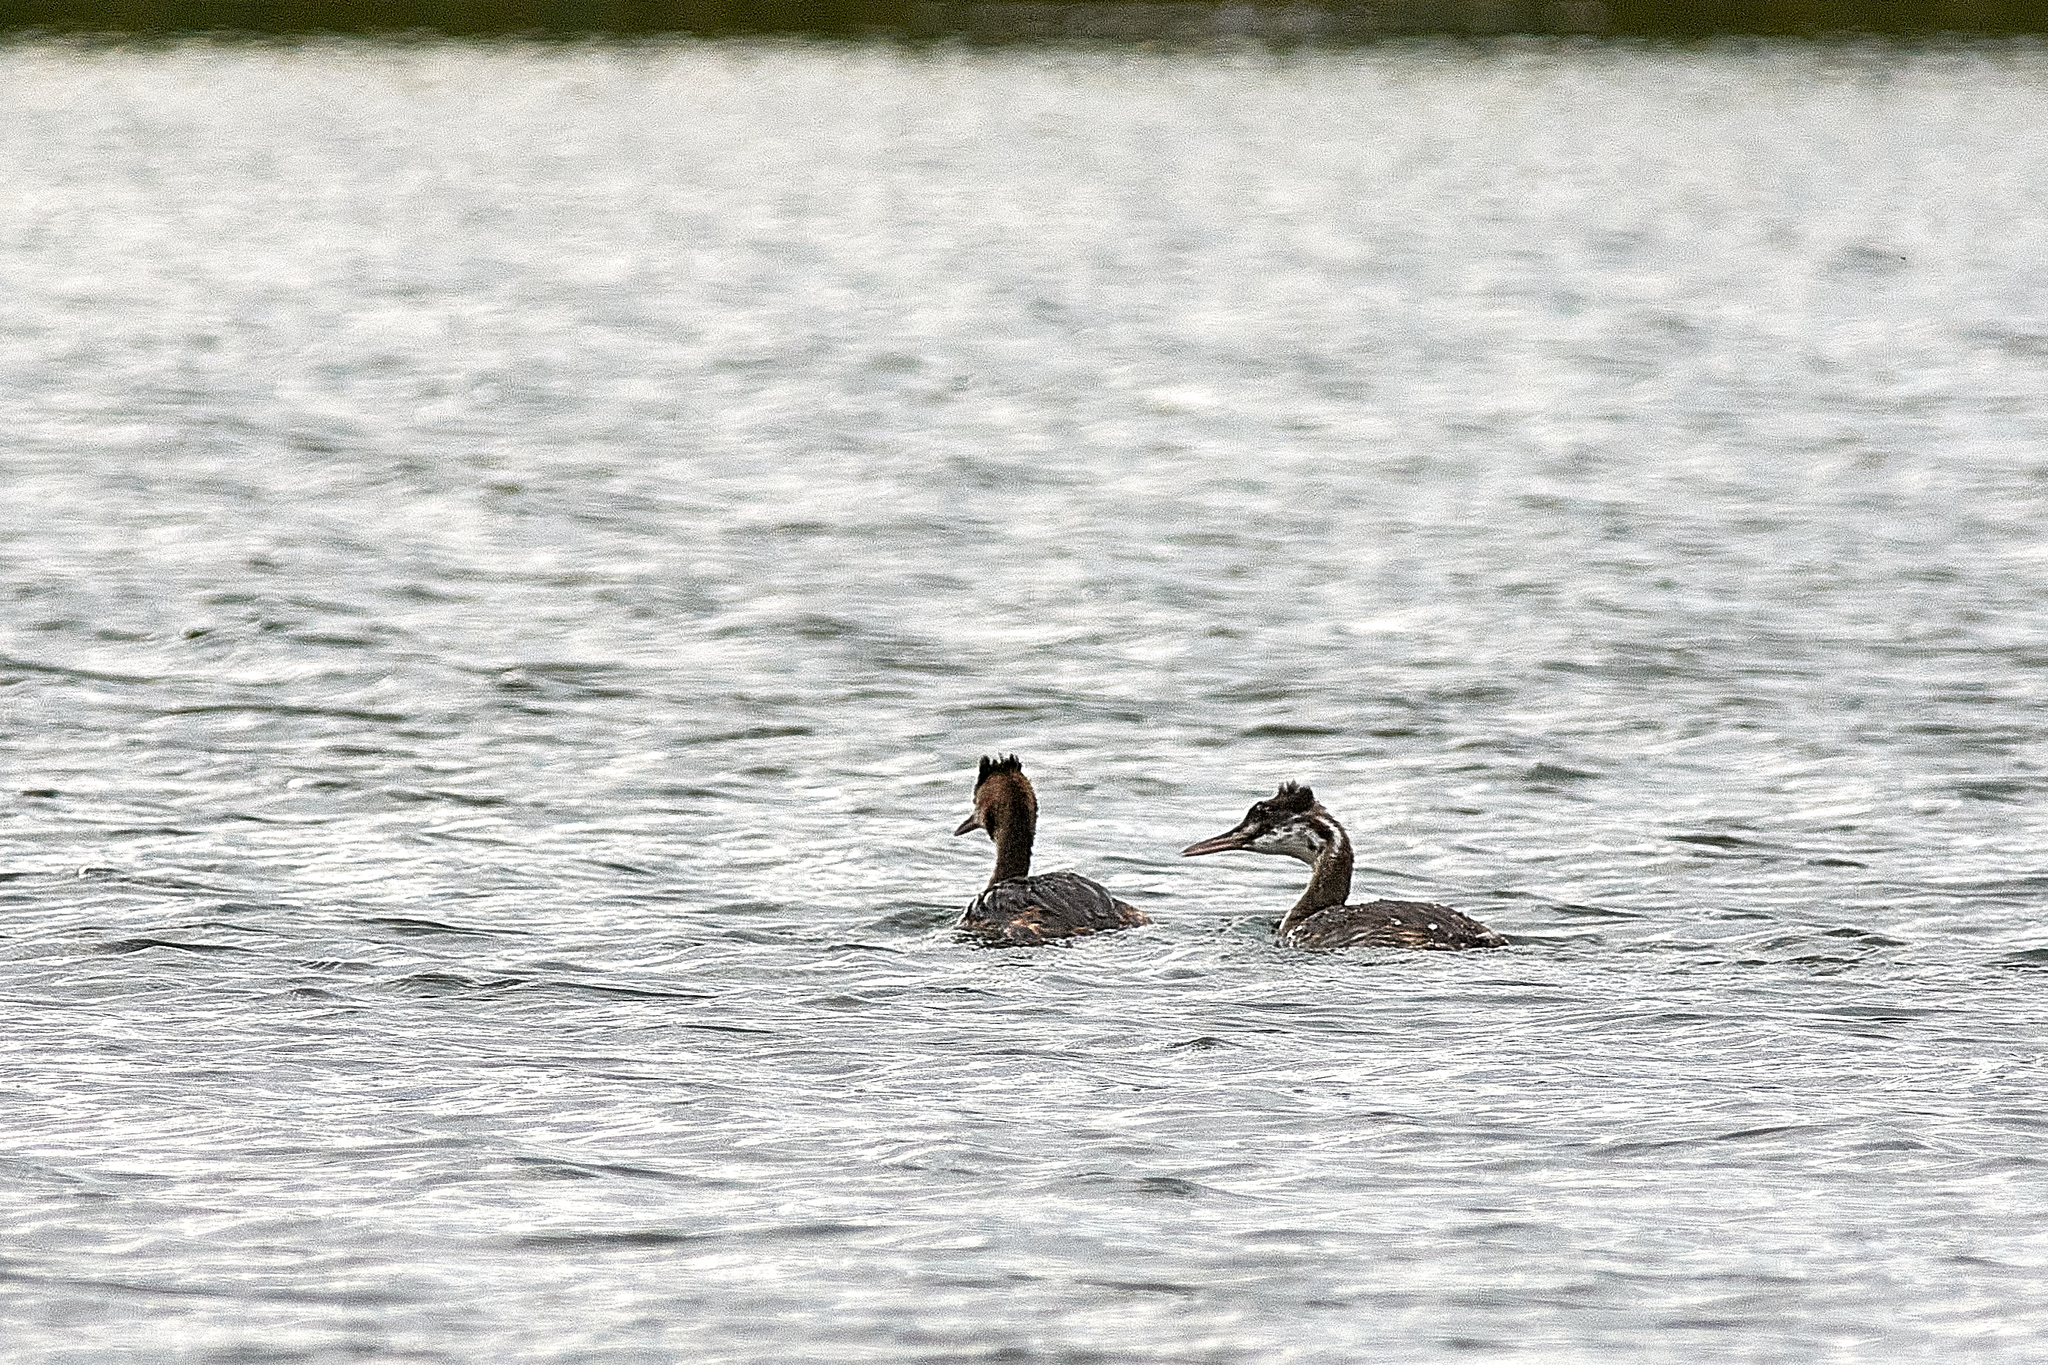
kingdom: Animalia
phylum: Chordata
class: Aves
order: Podicipediformes
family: Podicipedidae
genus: Podiceps
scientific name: Podiceps cristatus
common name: Great crested grebe
